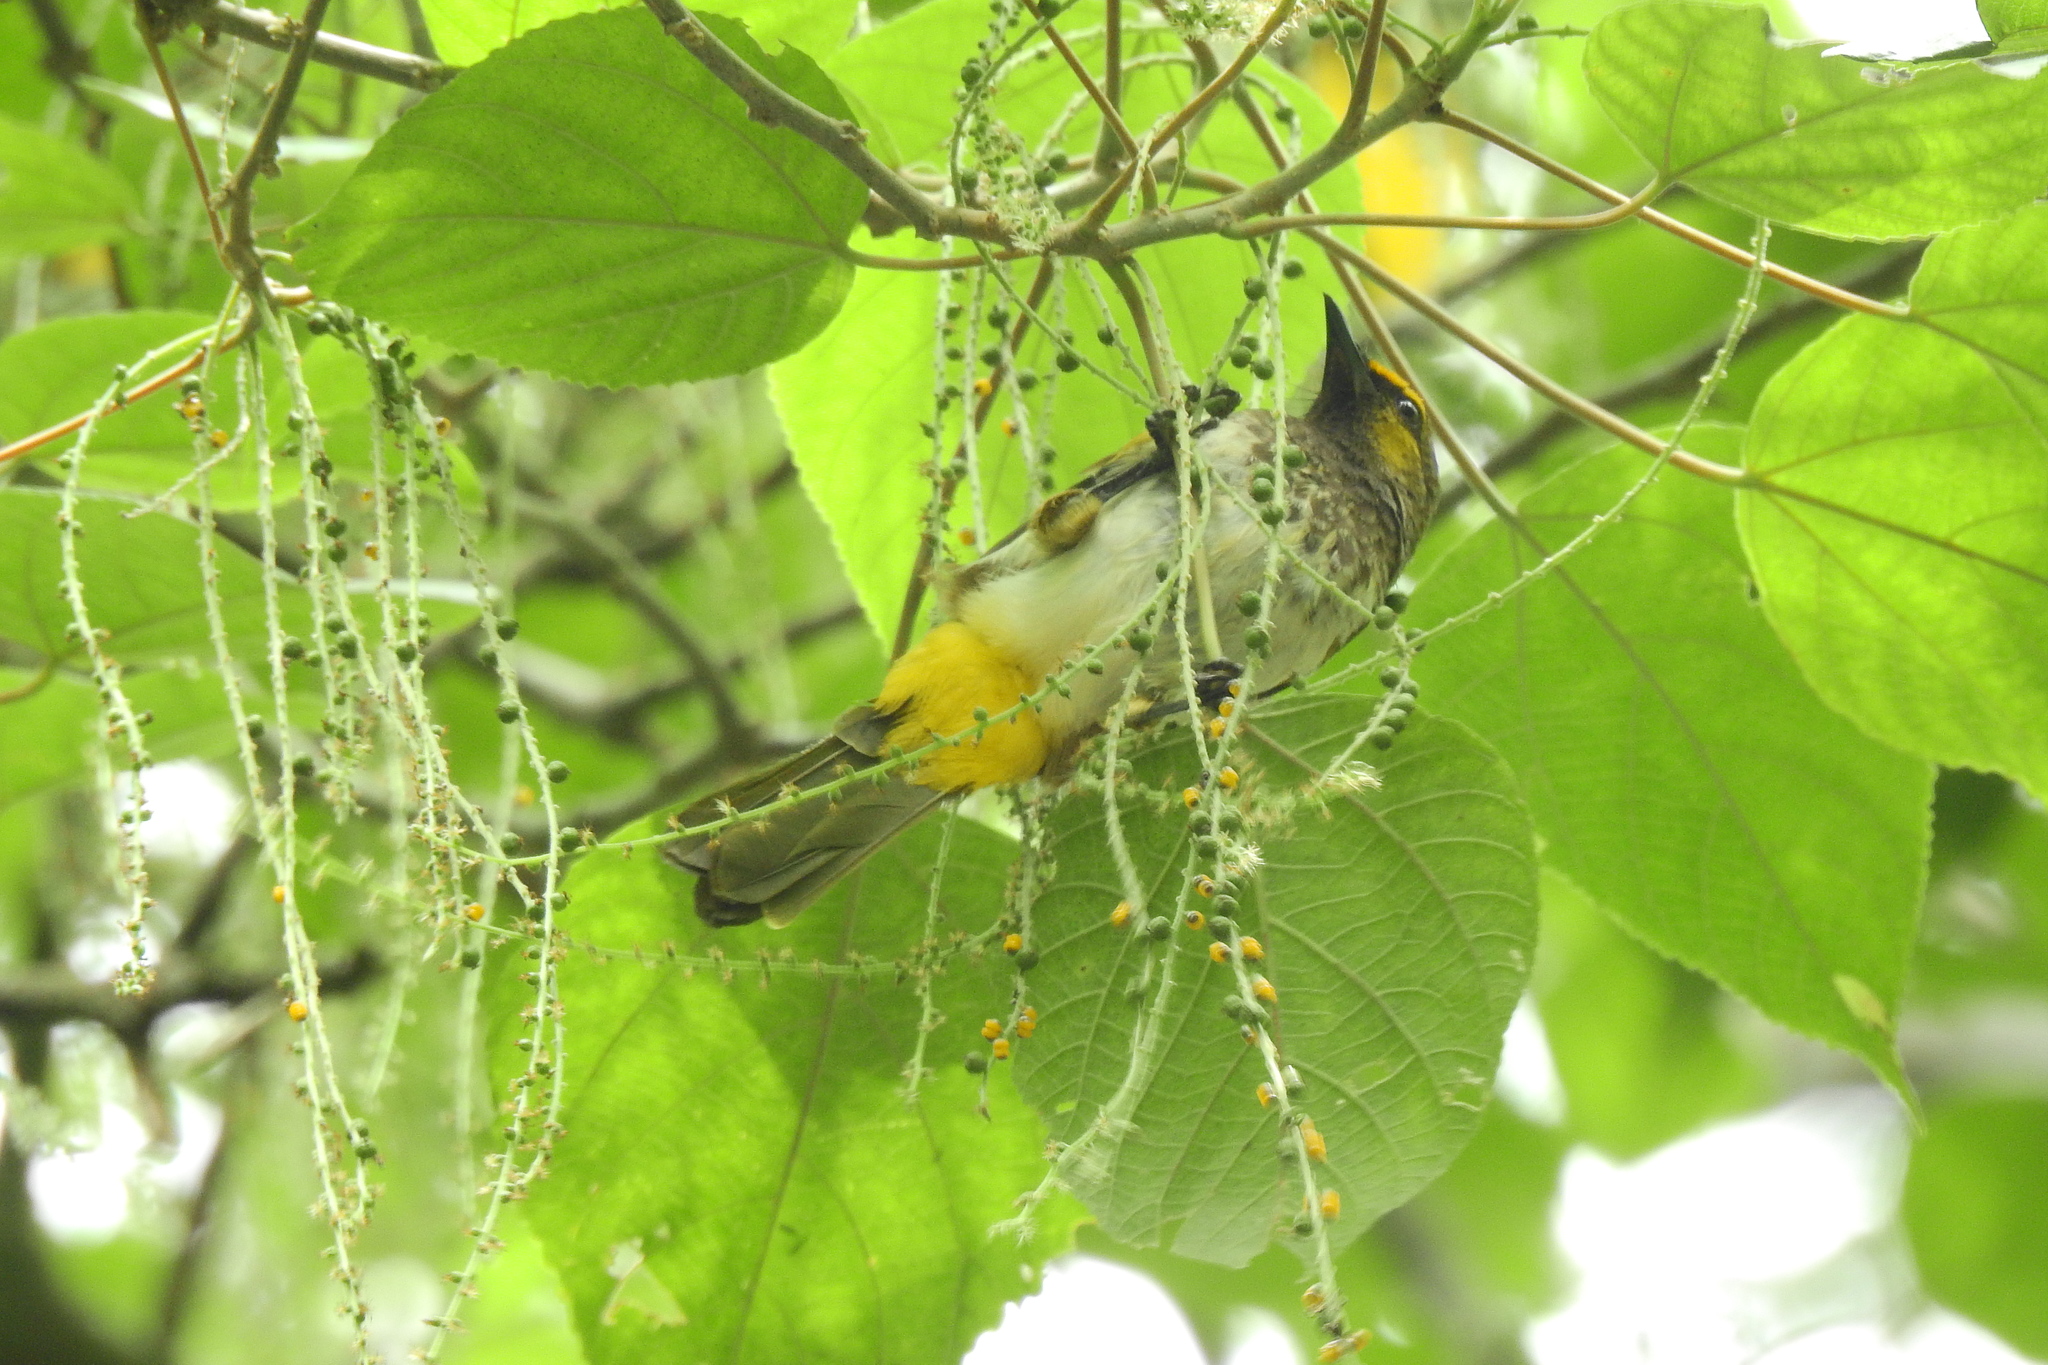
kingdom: Animalia
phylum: Chordata
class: Aves
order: Passeriformes
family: Pycnonotidae
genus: Pycnonotus
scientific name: Pycnonotus bimaculatus
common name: Orange-spotted bulbul
